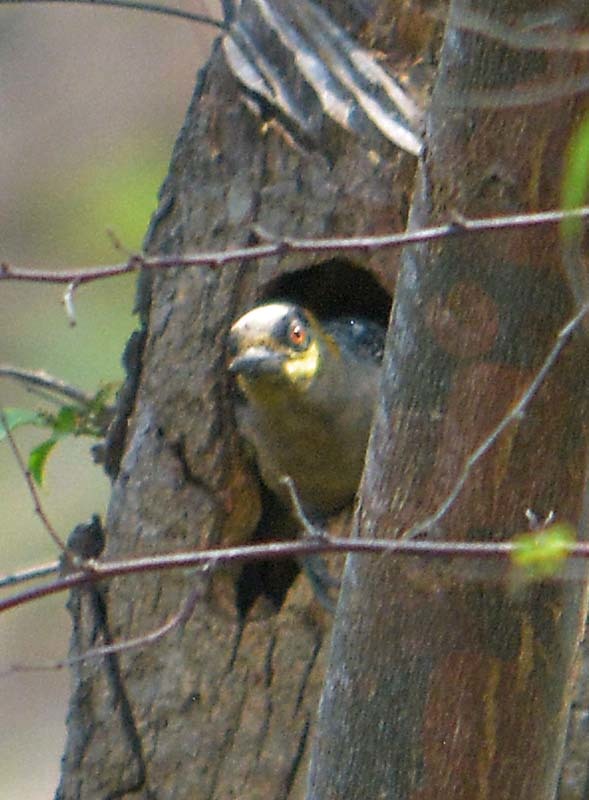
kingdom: Animalia
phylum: Chordata
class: Aves
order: Piciformes
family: Picidae
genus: Melanerpes
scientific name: Melanerpes chrysogenys
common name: Golden-cheeked woodpecker
